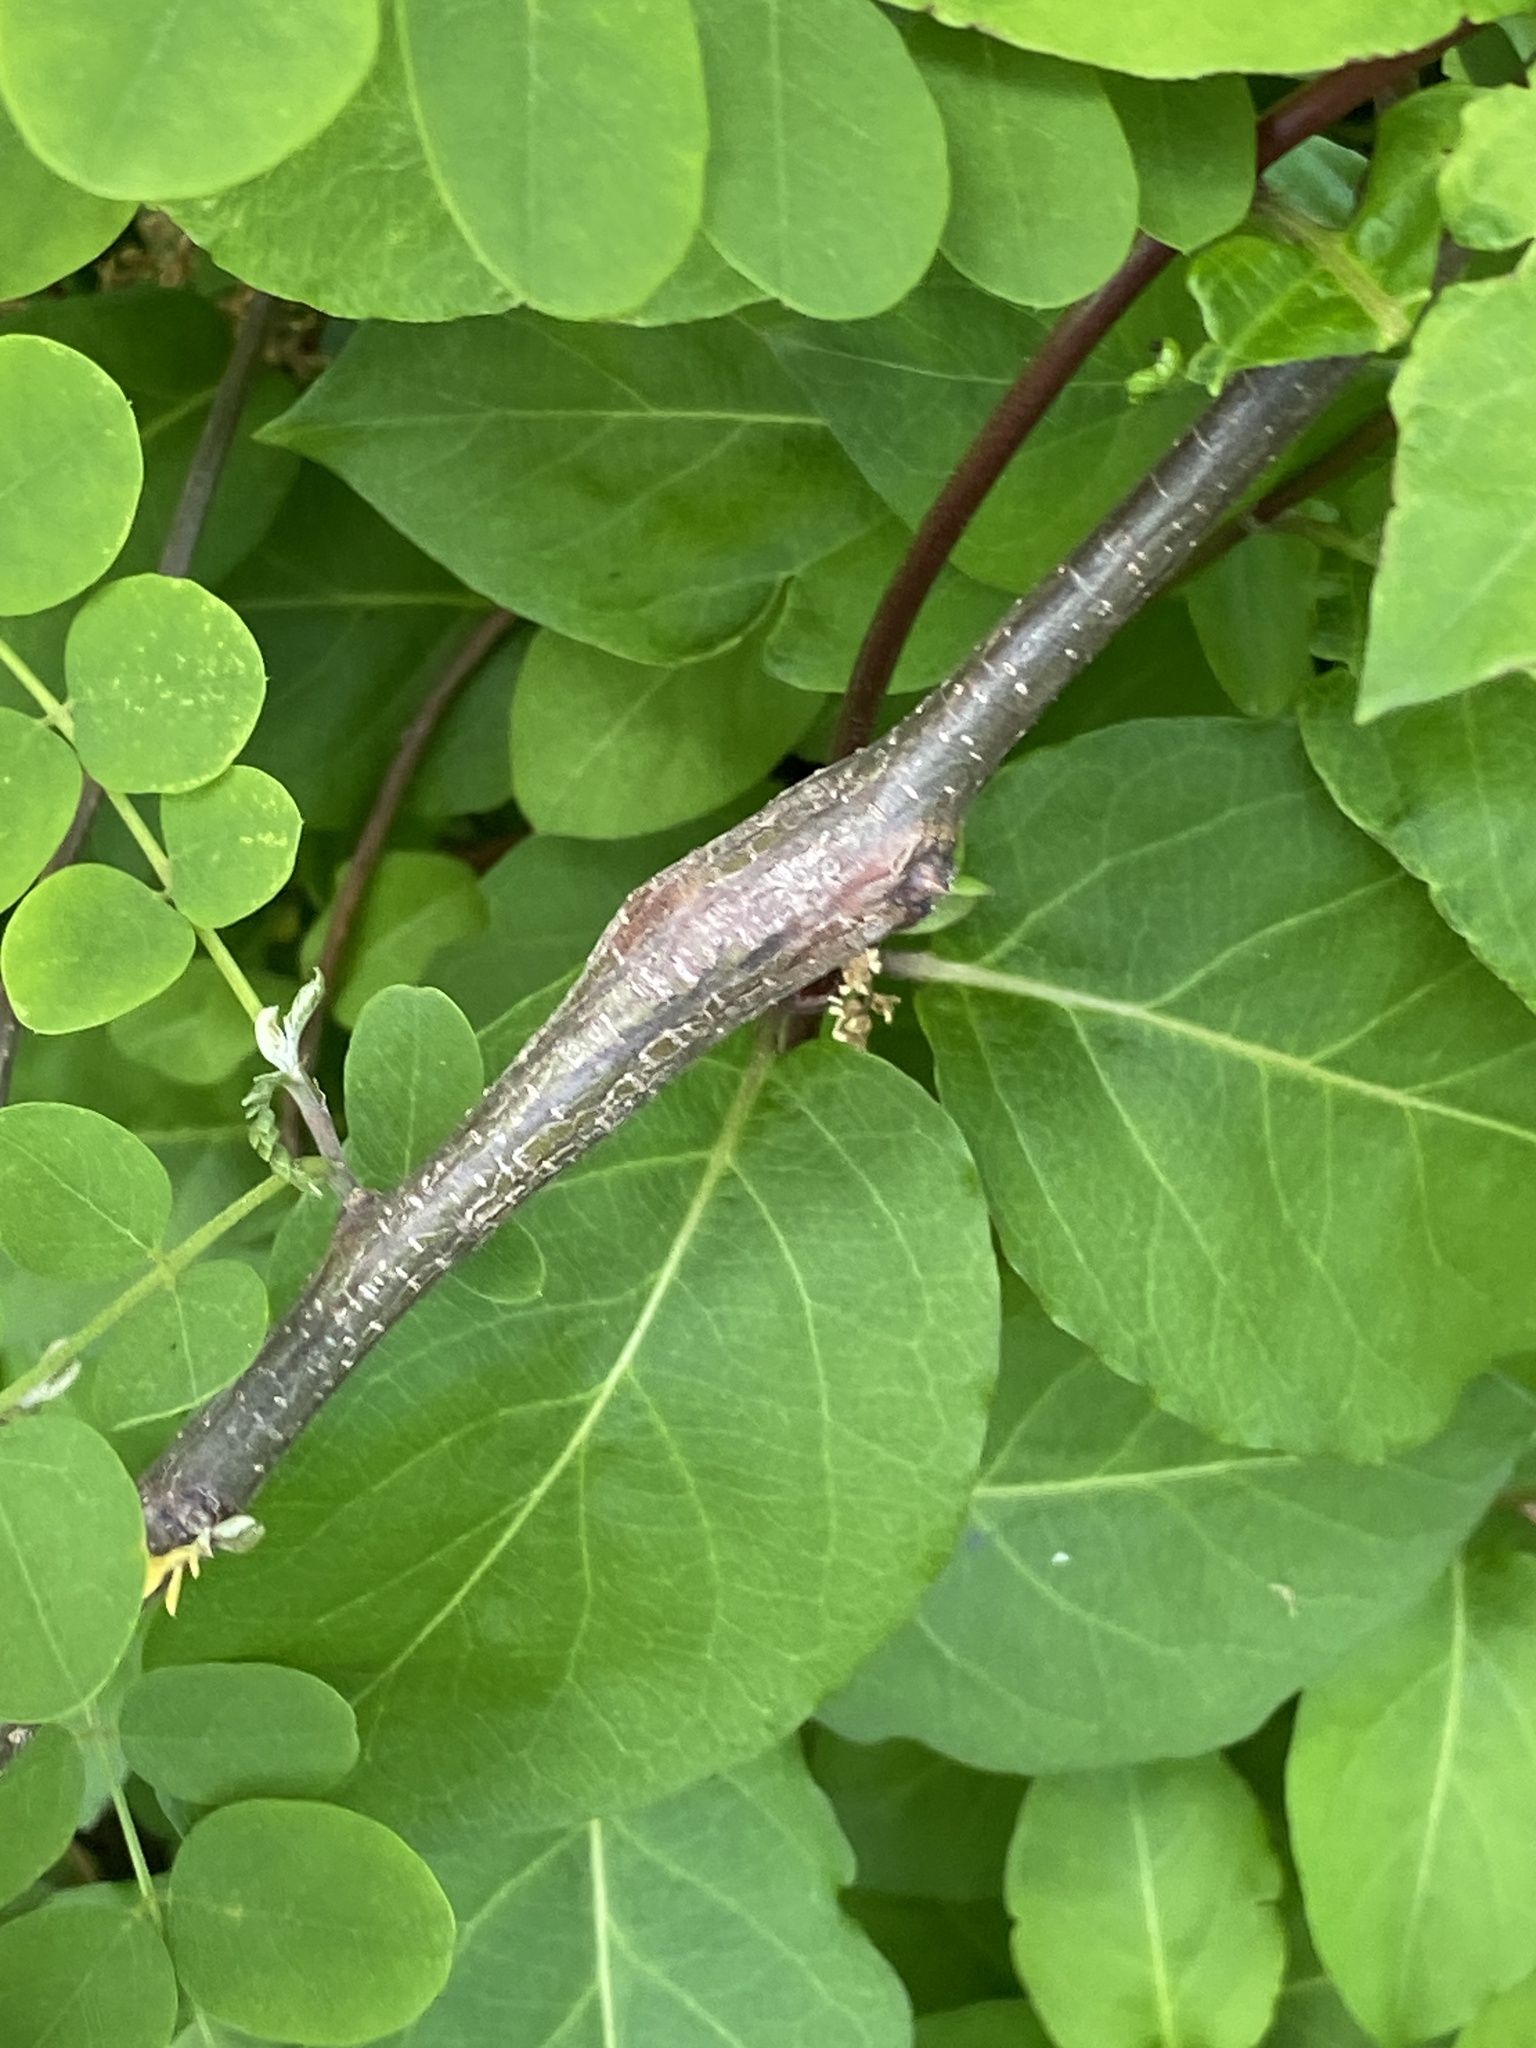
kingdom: Animalia
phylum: Arthropoda
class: Insecta
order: Lepidoptera
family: Tortricidae
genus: Ecdytolopha
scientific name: Ecdytolopha insiticiana
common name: Locust twig borer moth
